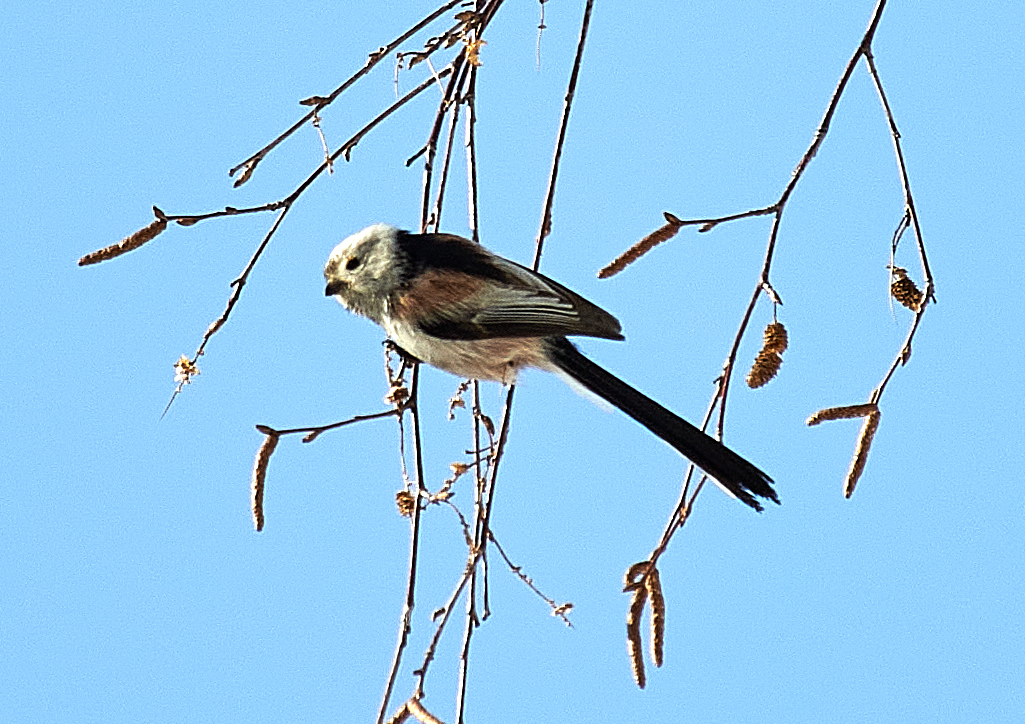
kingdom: Animalia
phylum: Chordata
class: Aves
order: Passeriformes
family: Aegithalidae
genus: Aegithalos
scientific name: Aegithalos caudatus
